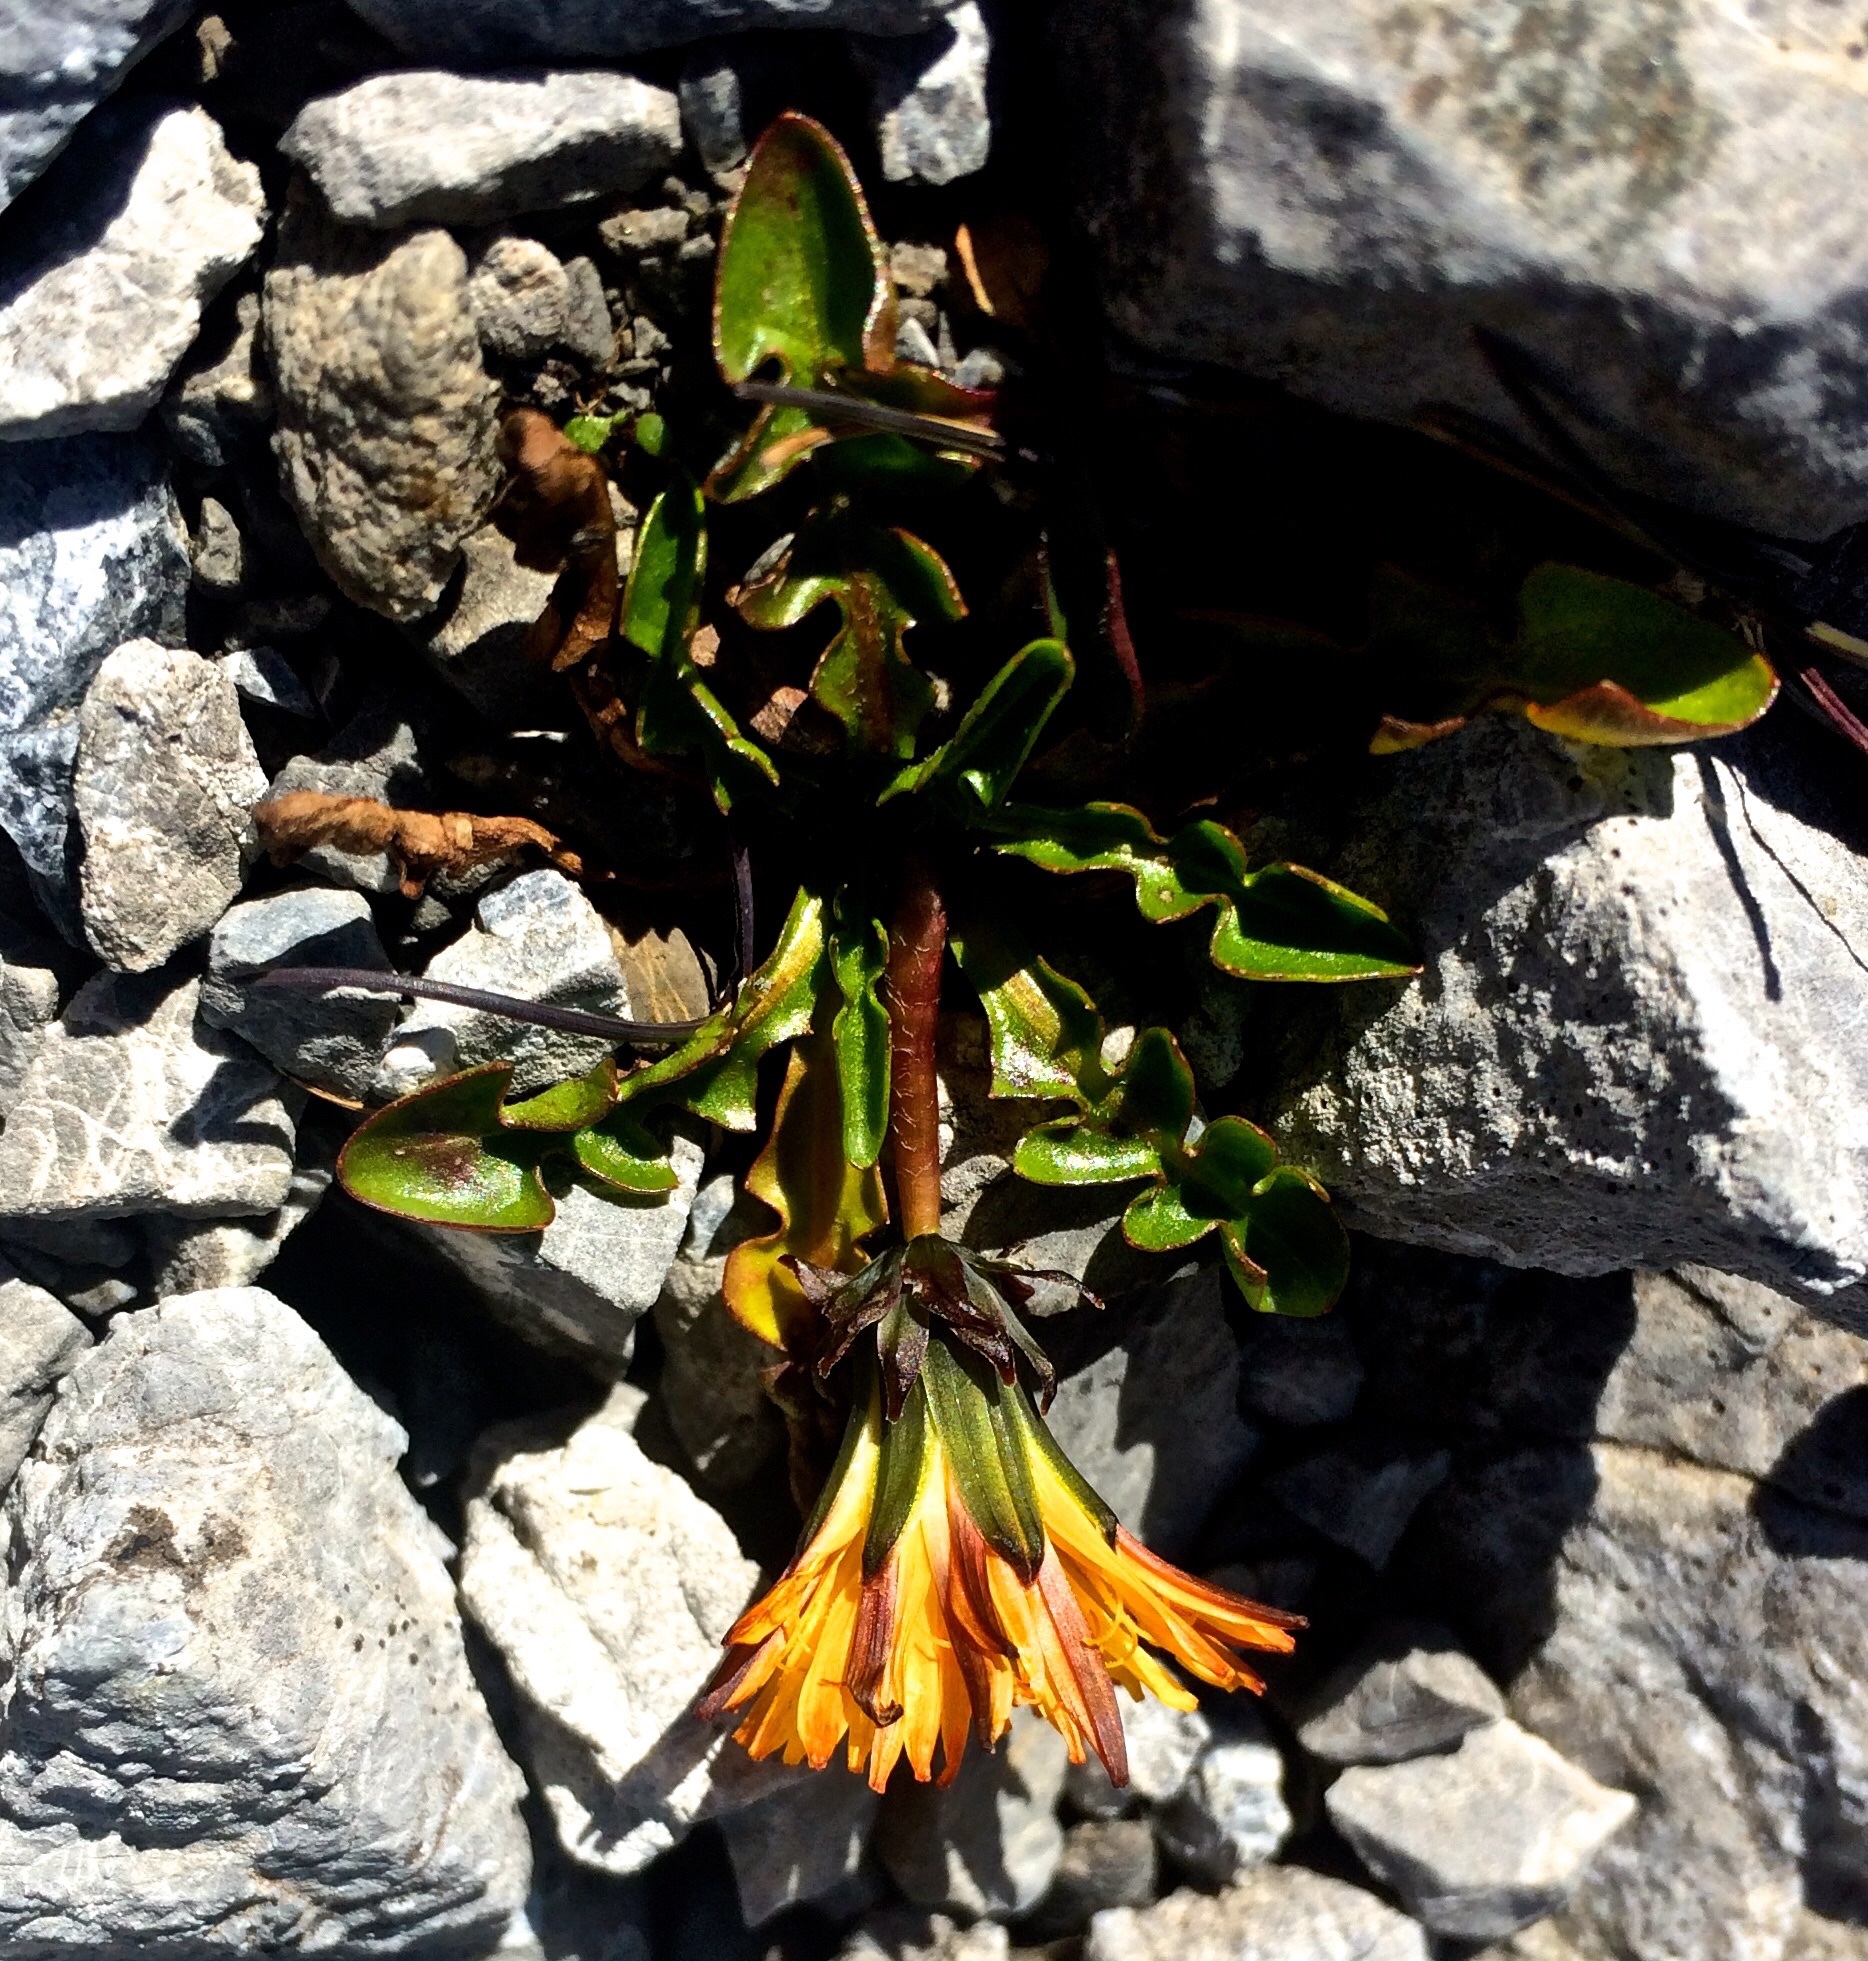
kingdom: Plantae
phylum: Tracheophyta
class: Magnoliopsida
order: Asterales
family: Asteraceae
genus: Taraxacum
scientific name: Taraxacum pacheri
